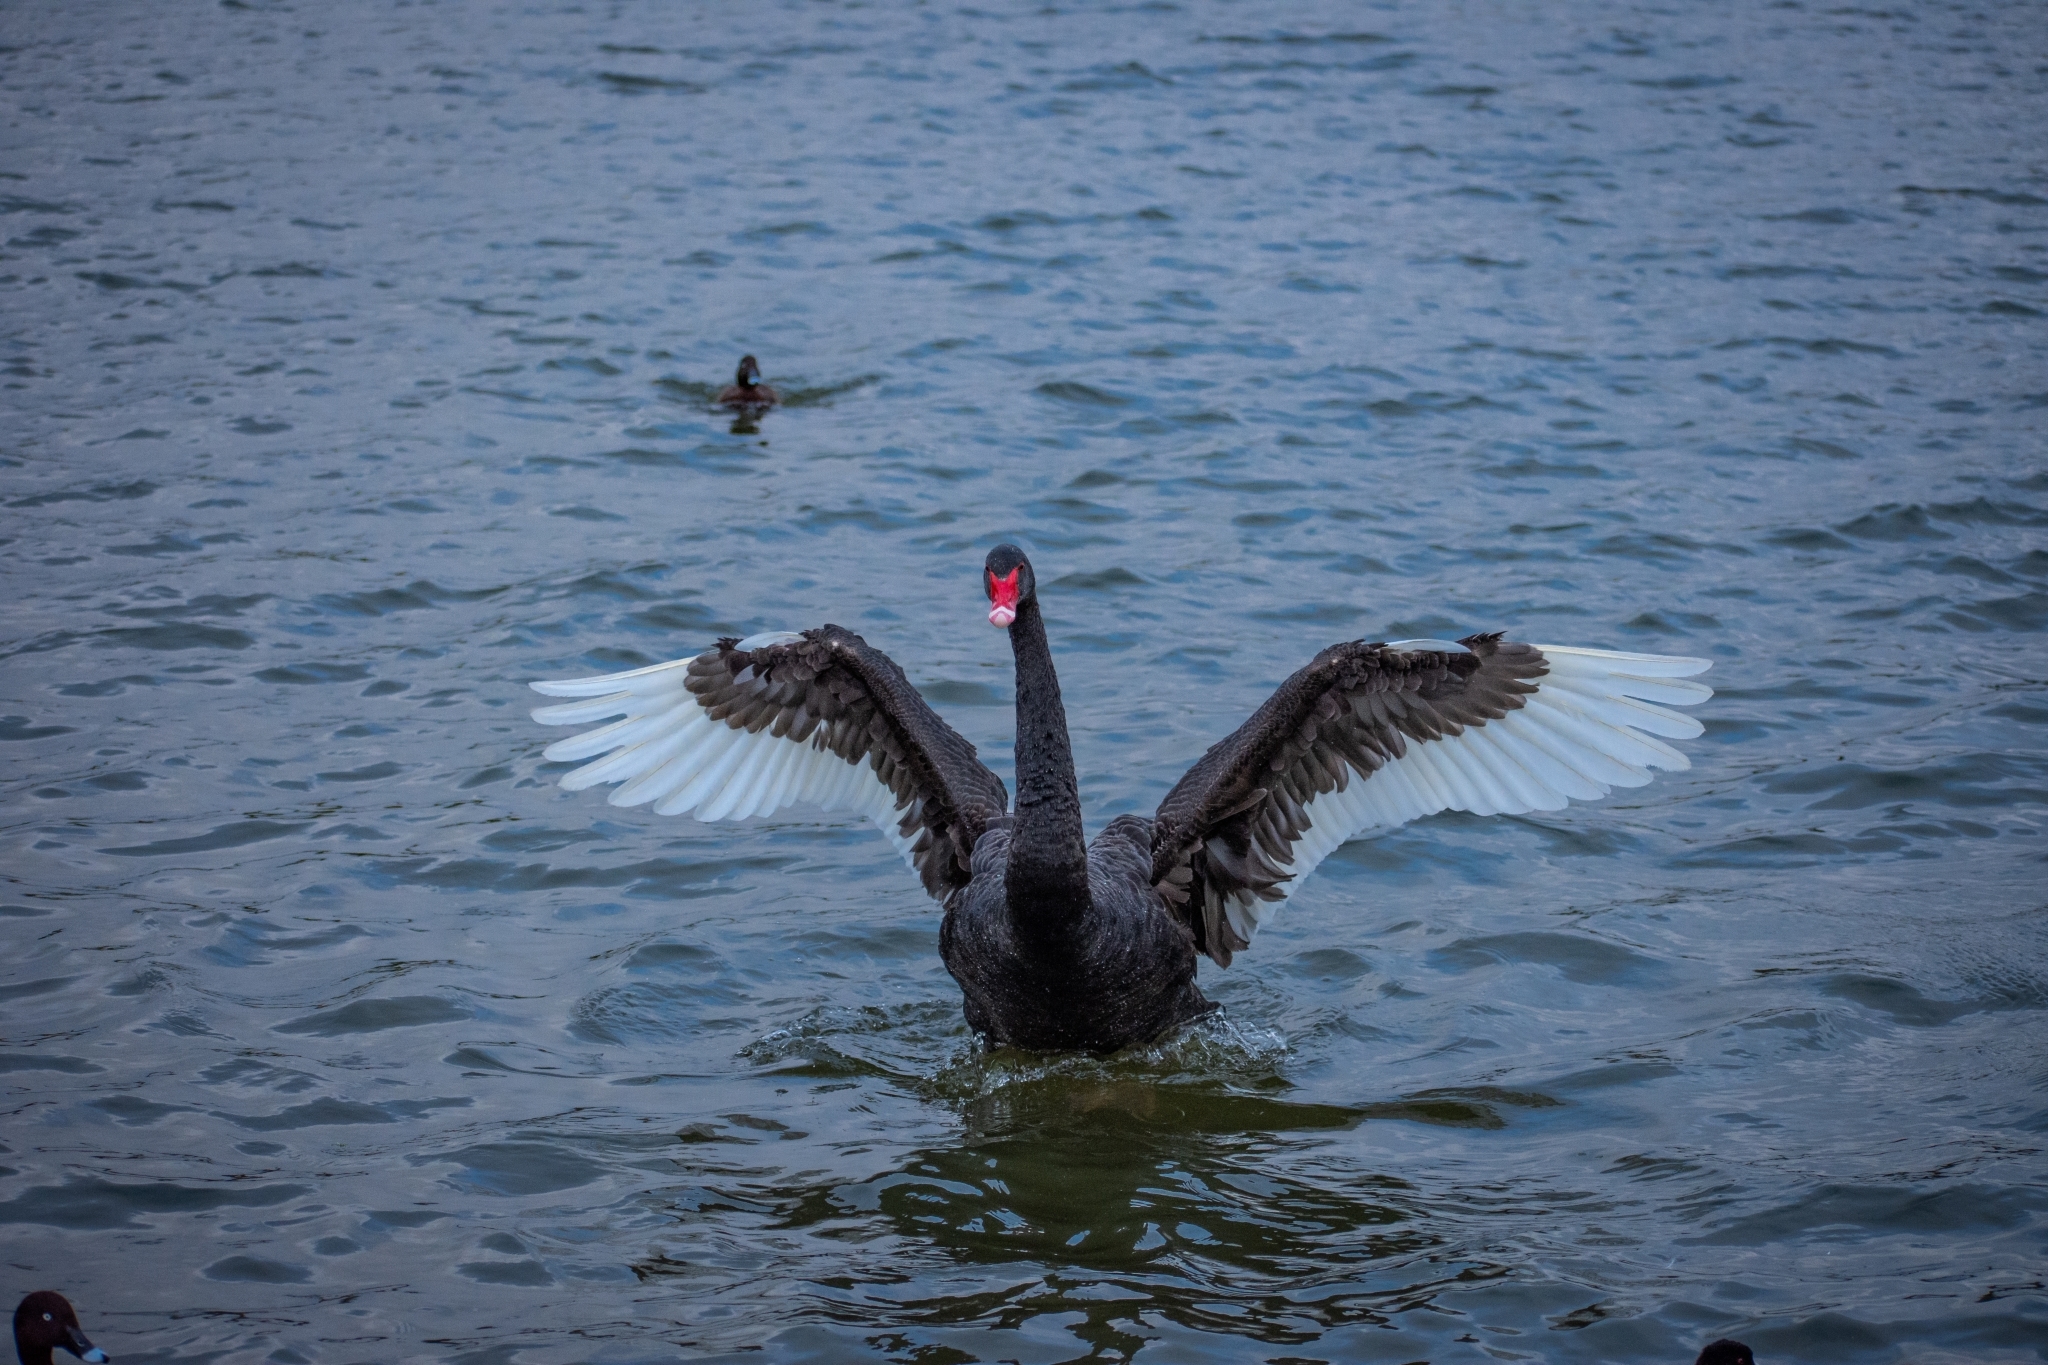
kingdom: Animalia
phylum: Chordata
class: Aves
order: Anseriformes
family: Anatidae
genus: Cygnus
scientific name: Cygnus atratus
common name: Black swan
